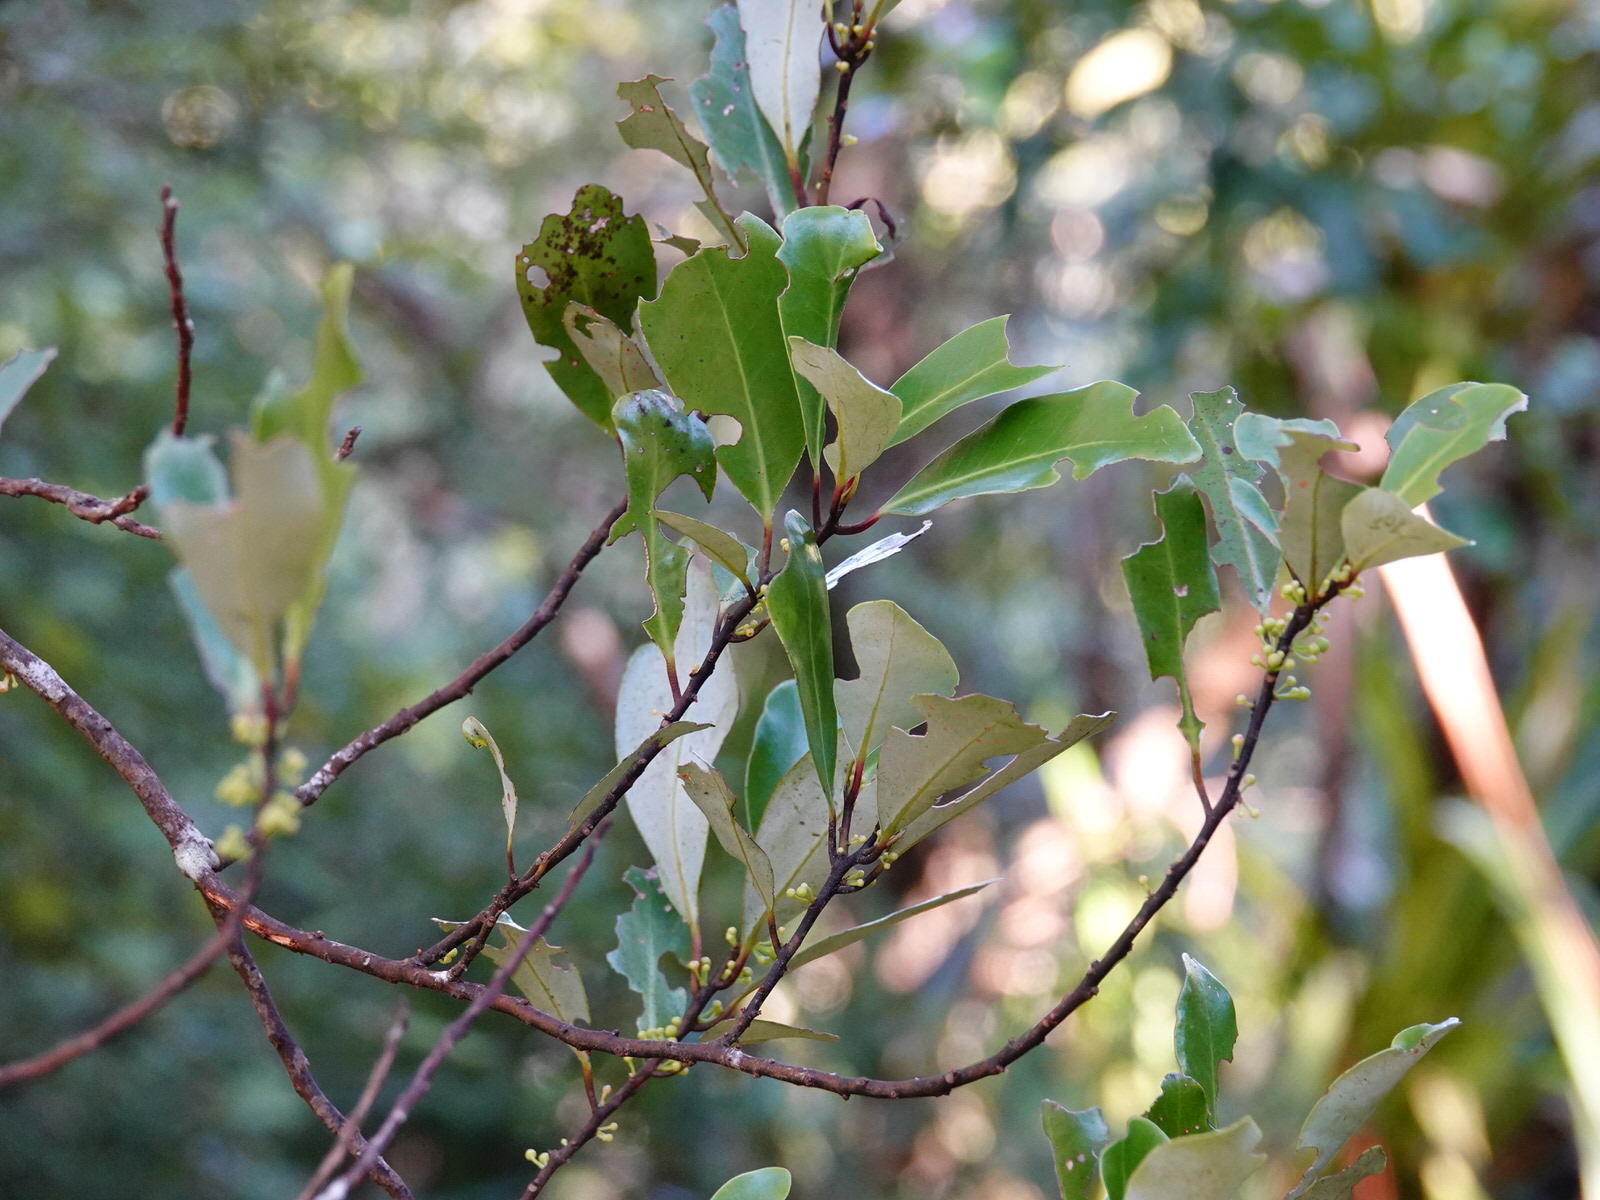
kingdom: Plantae
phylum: Tracheophyta
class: Magnoliopsida
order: Canellales
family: Winteraceae
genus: Pseudowintera
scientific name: Pseudowintera axillaris
